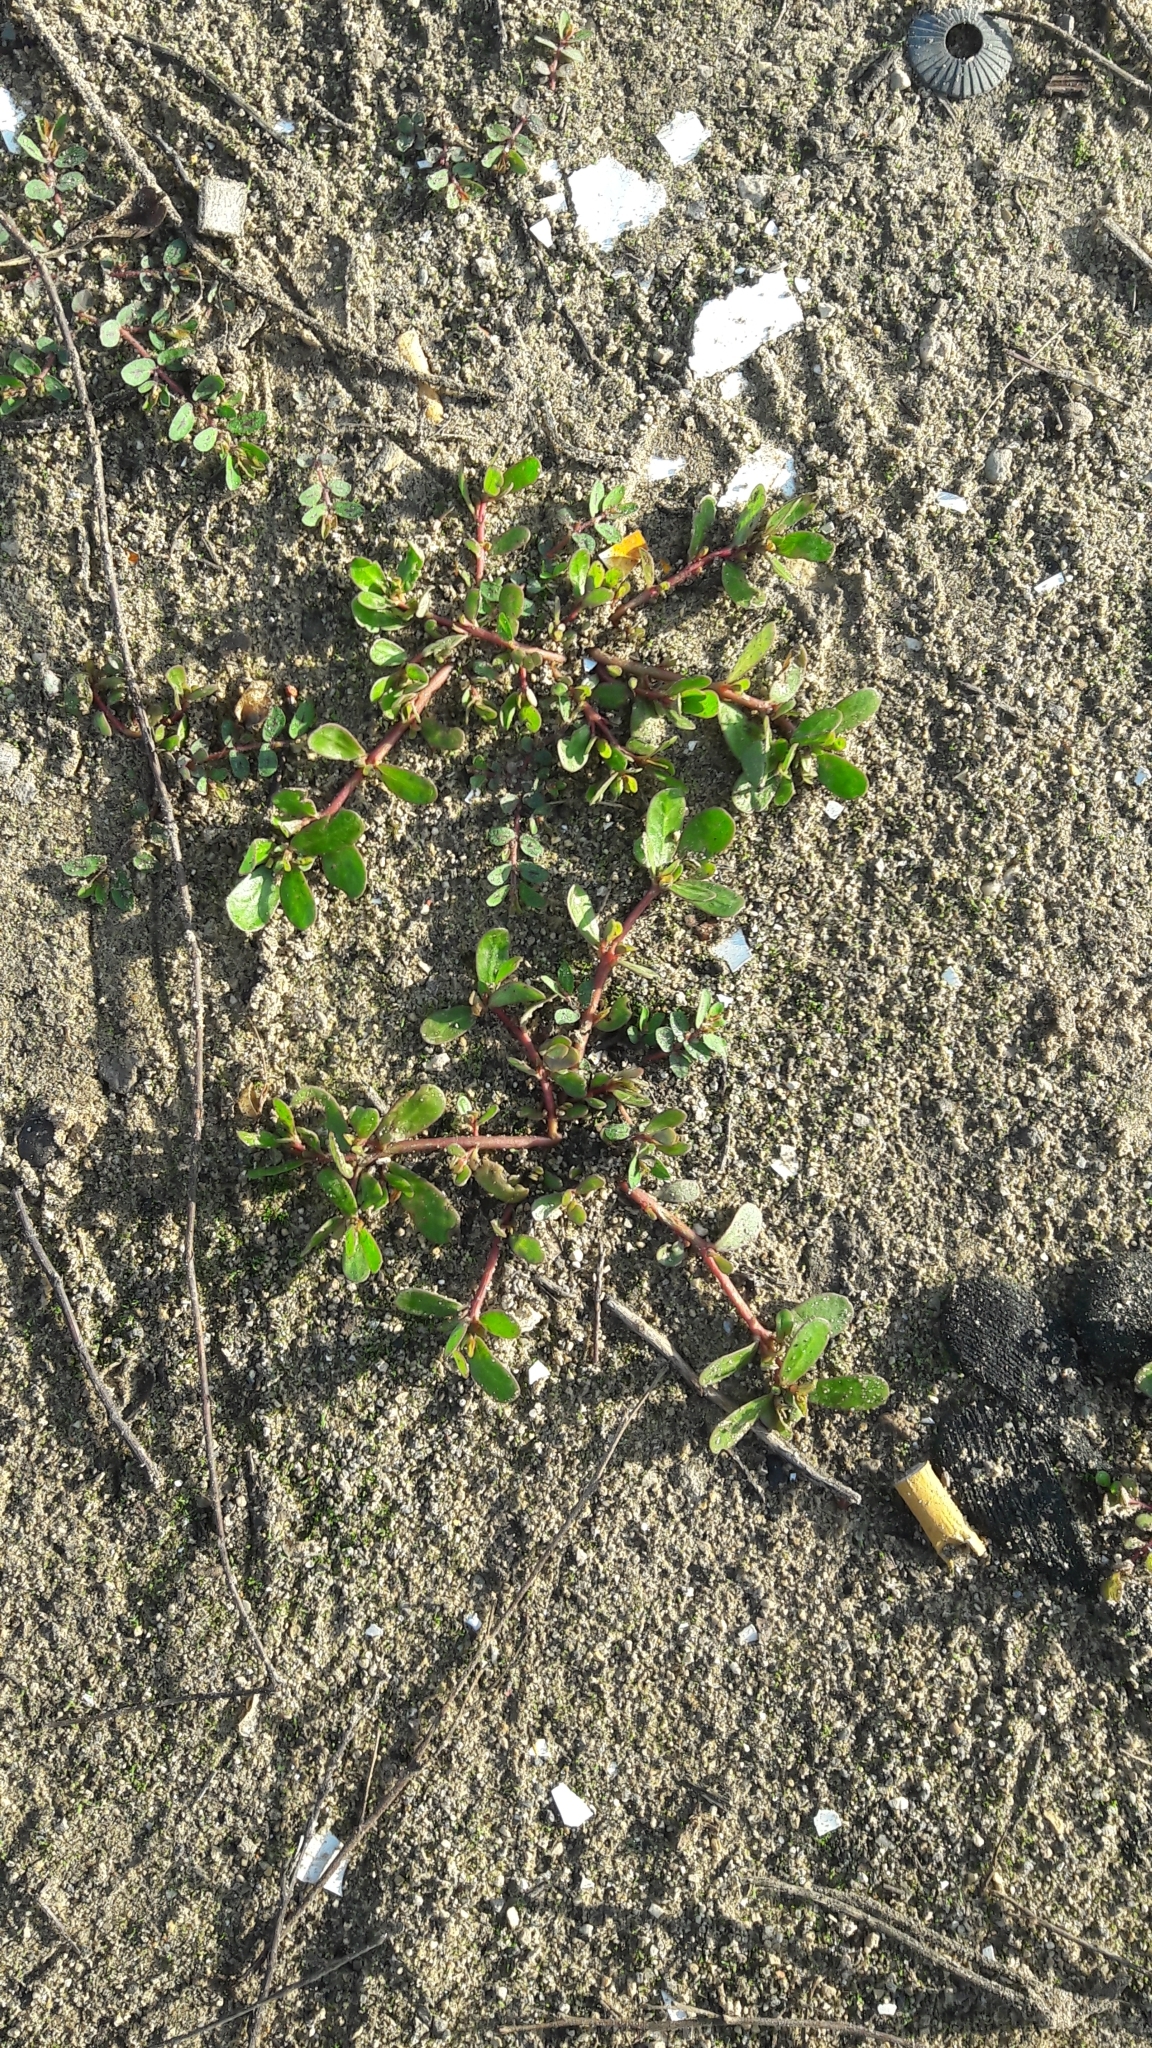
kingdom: Plantae
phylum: Tracheophyta
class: Magnoliopsida
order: Caryophyllales
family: Portulacaceae
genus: Portulaca
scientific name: Portulaca oleracea
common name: Common purslane
